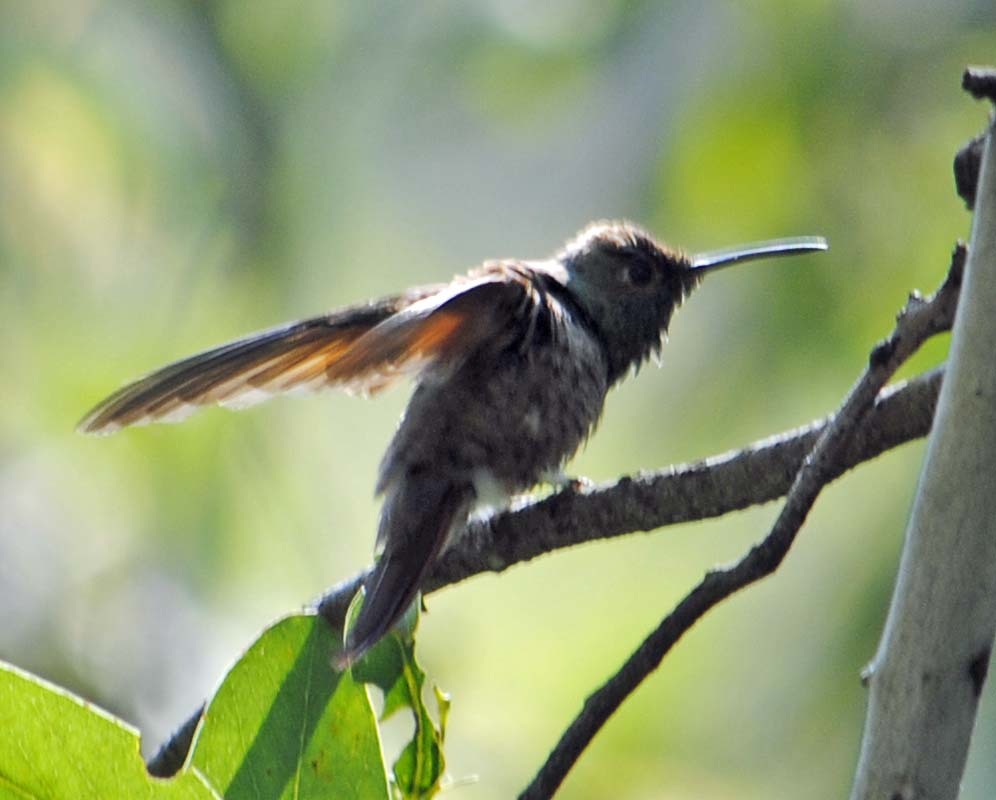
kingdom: Animalia
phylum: Chordata
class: Aves
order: Apodiformes
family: Trochilidae
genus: Saucerottia
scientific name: Saucerottia beryllina
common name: Berylline hummingbird
